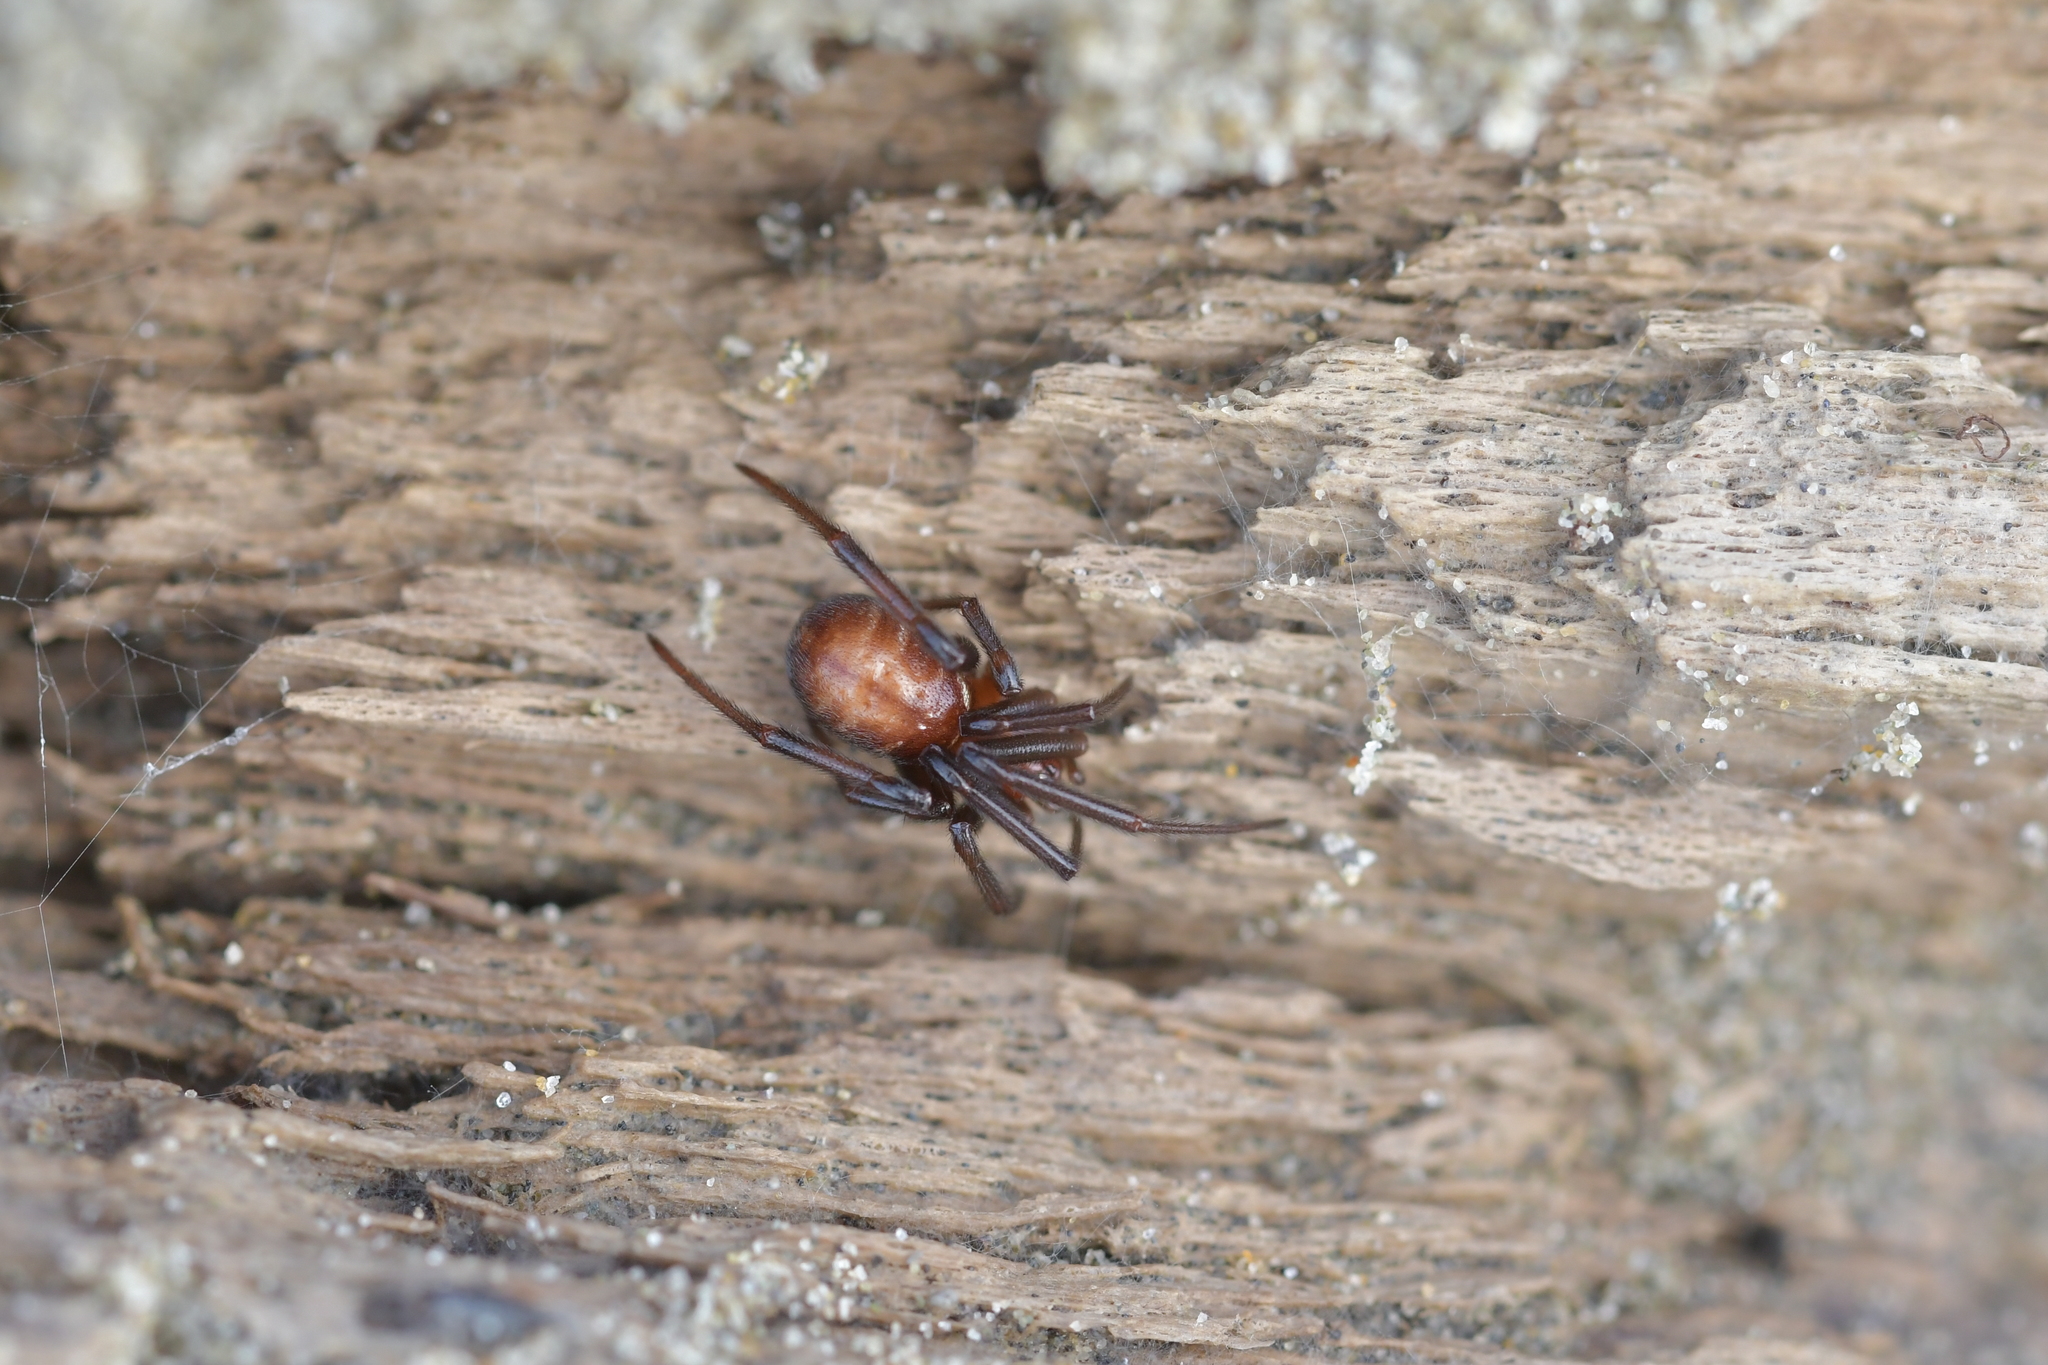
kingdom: Animalia
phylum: Arthropoda
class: Arachnida
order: Araneae
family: Theridiidae
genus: Steatoda
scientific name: Steatoda capensis
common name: Cobweb weaver
